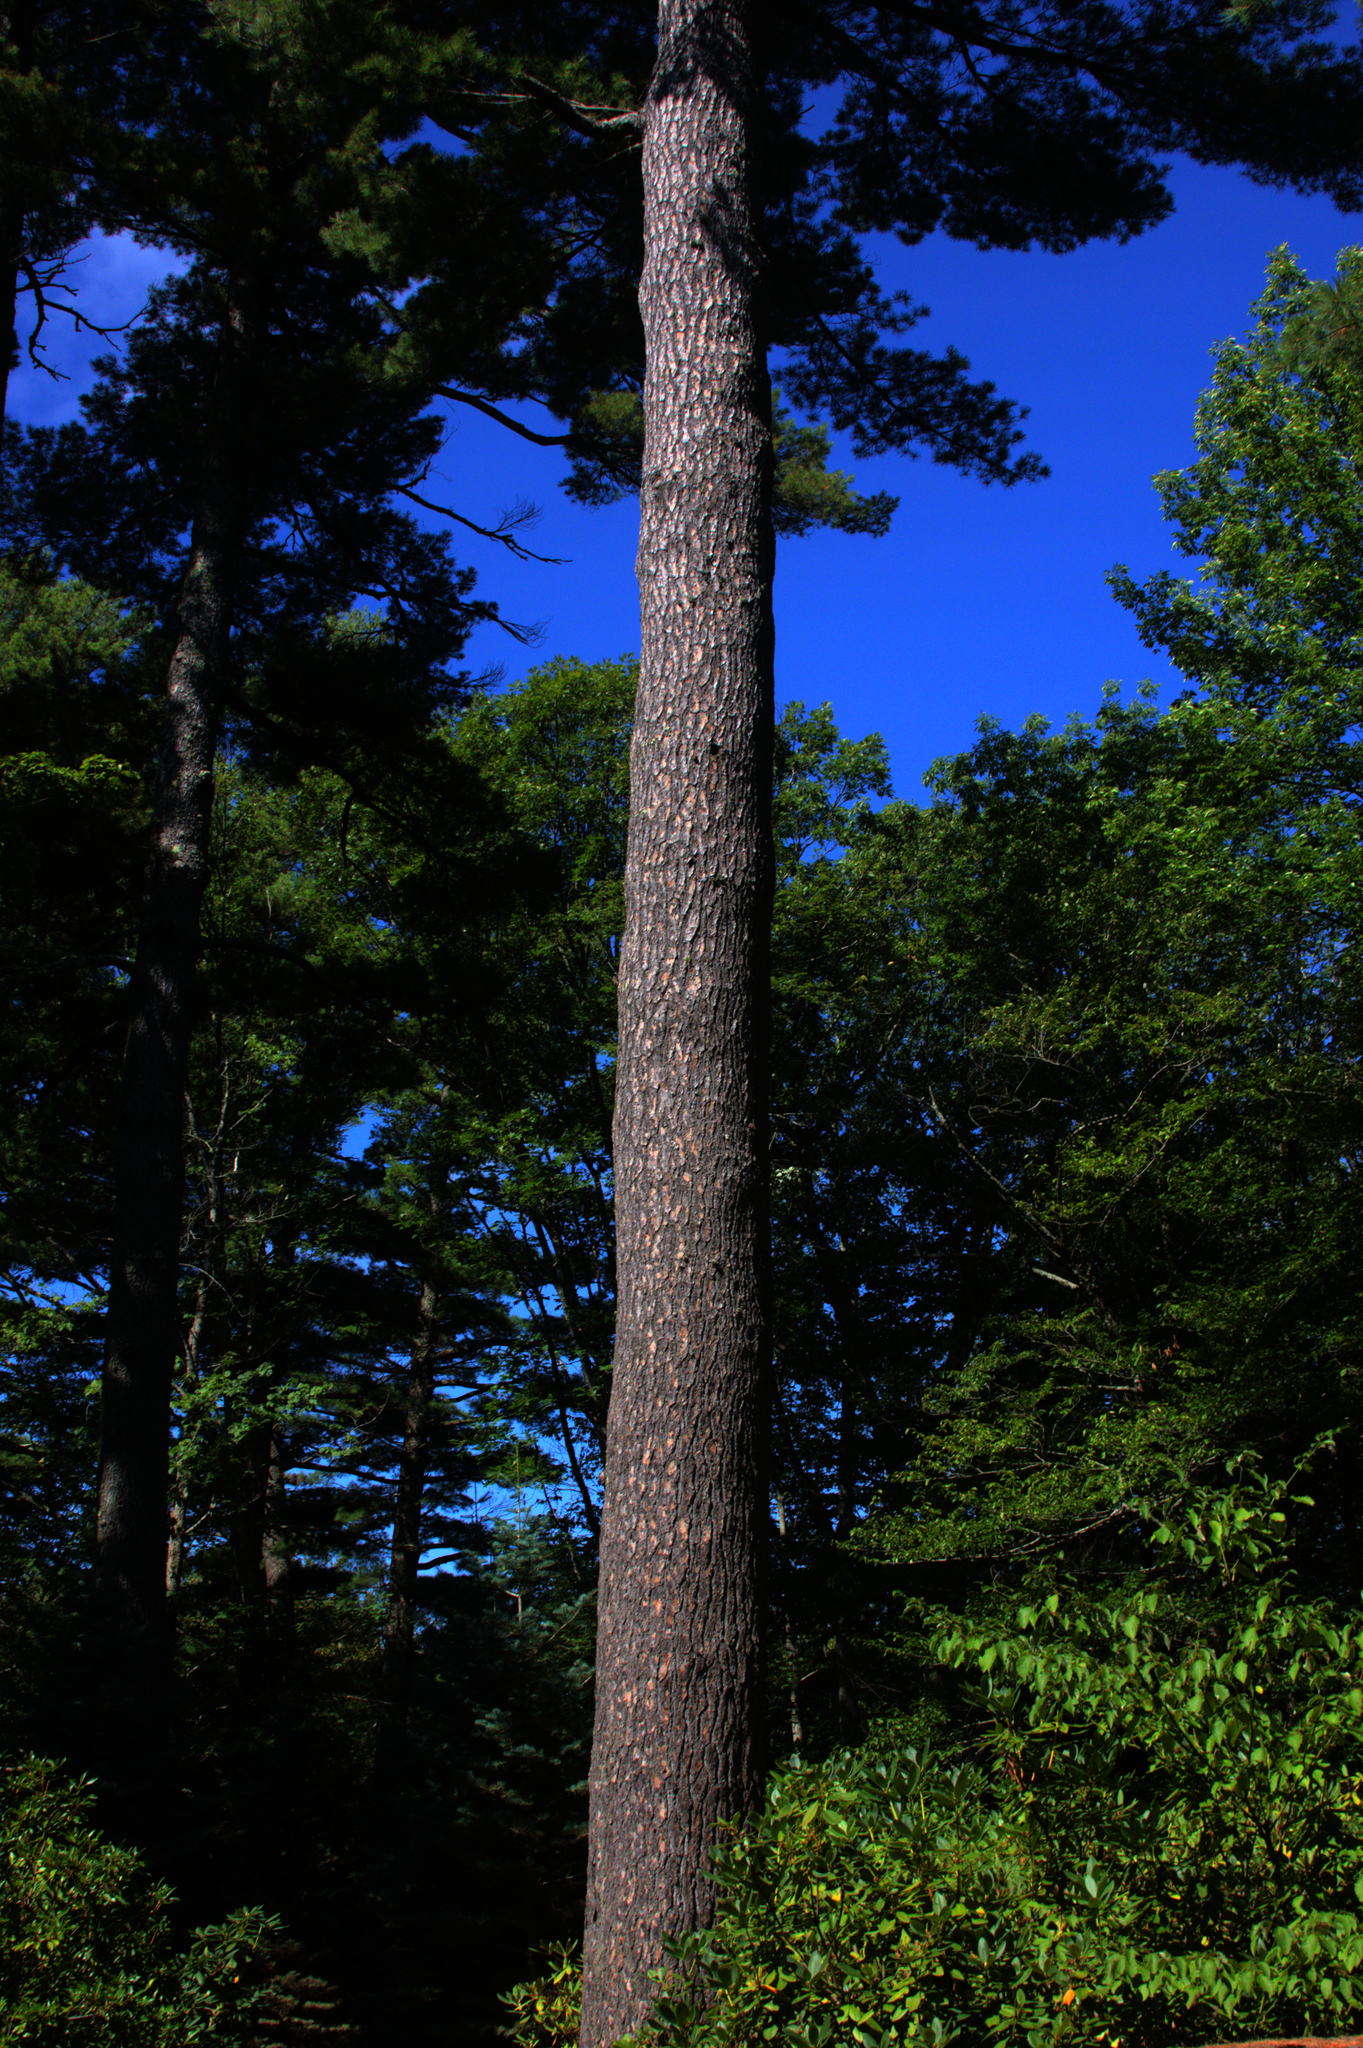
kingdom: Plantae
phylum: Tracheophyta
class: Pinopsida
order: Pinales
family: Pinaceae
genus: Pinus
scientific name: Pinus strobus
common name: Weymouth pine
